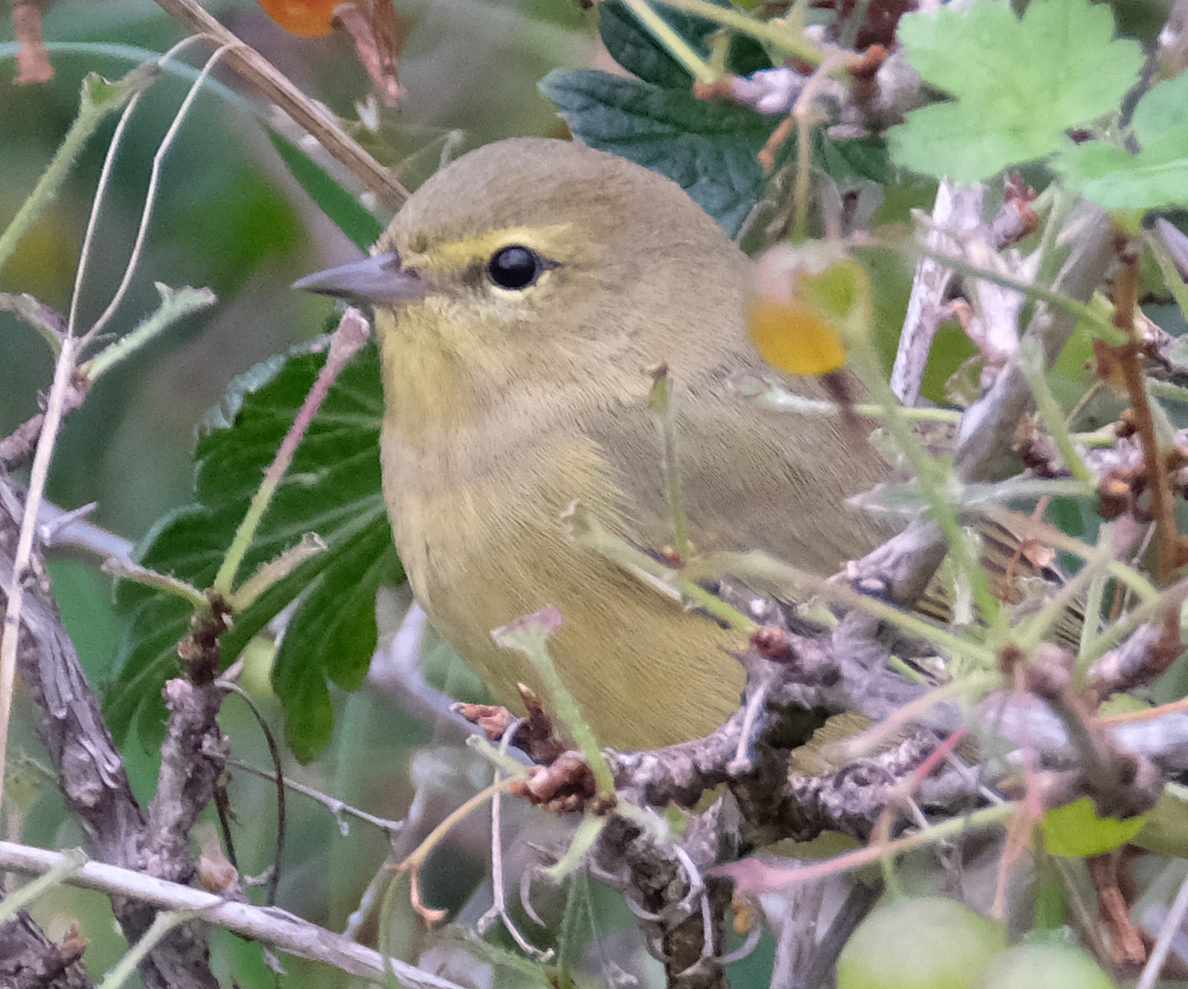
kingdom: Animalia
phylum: Chordata
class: Aves
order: Passeriformes
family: Parulidae
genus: Leiothlypis
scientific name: Leiothlypis celata
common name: Orange-crowned warbler
